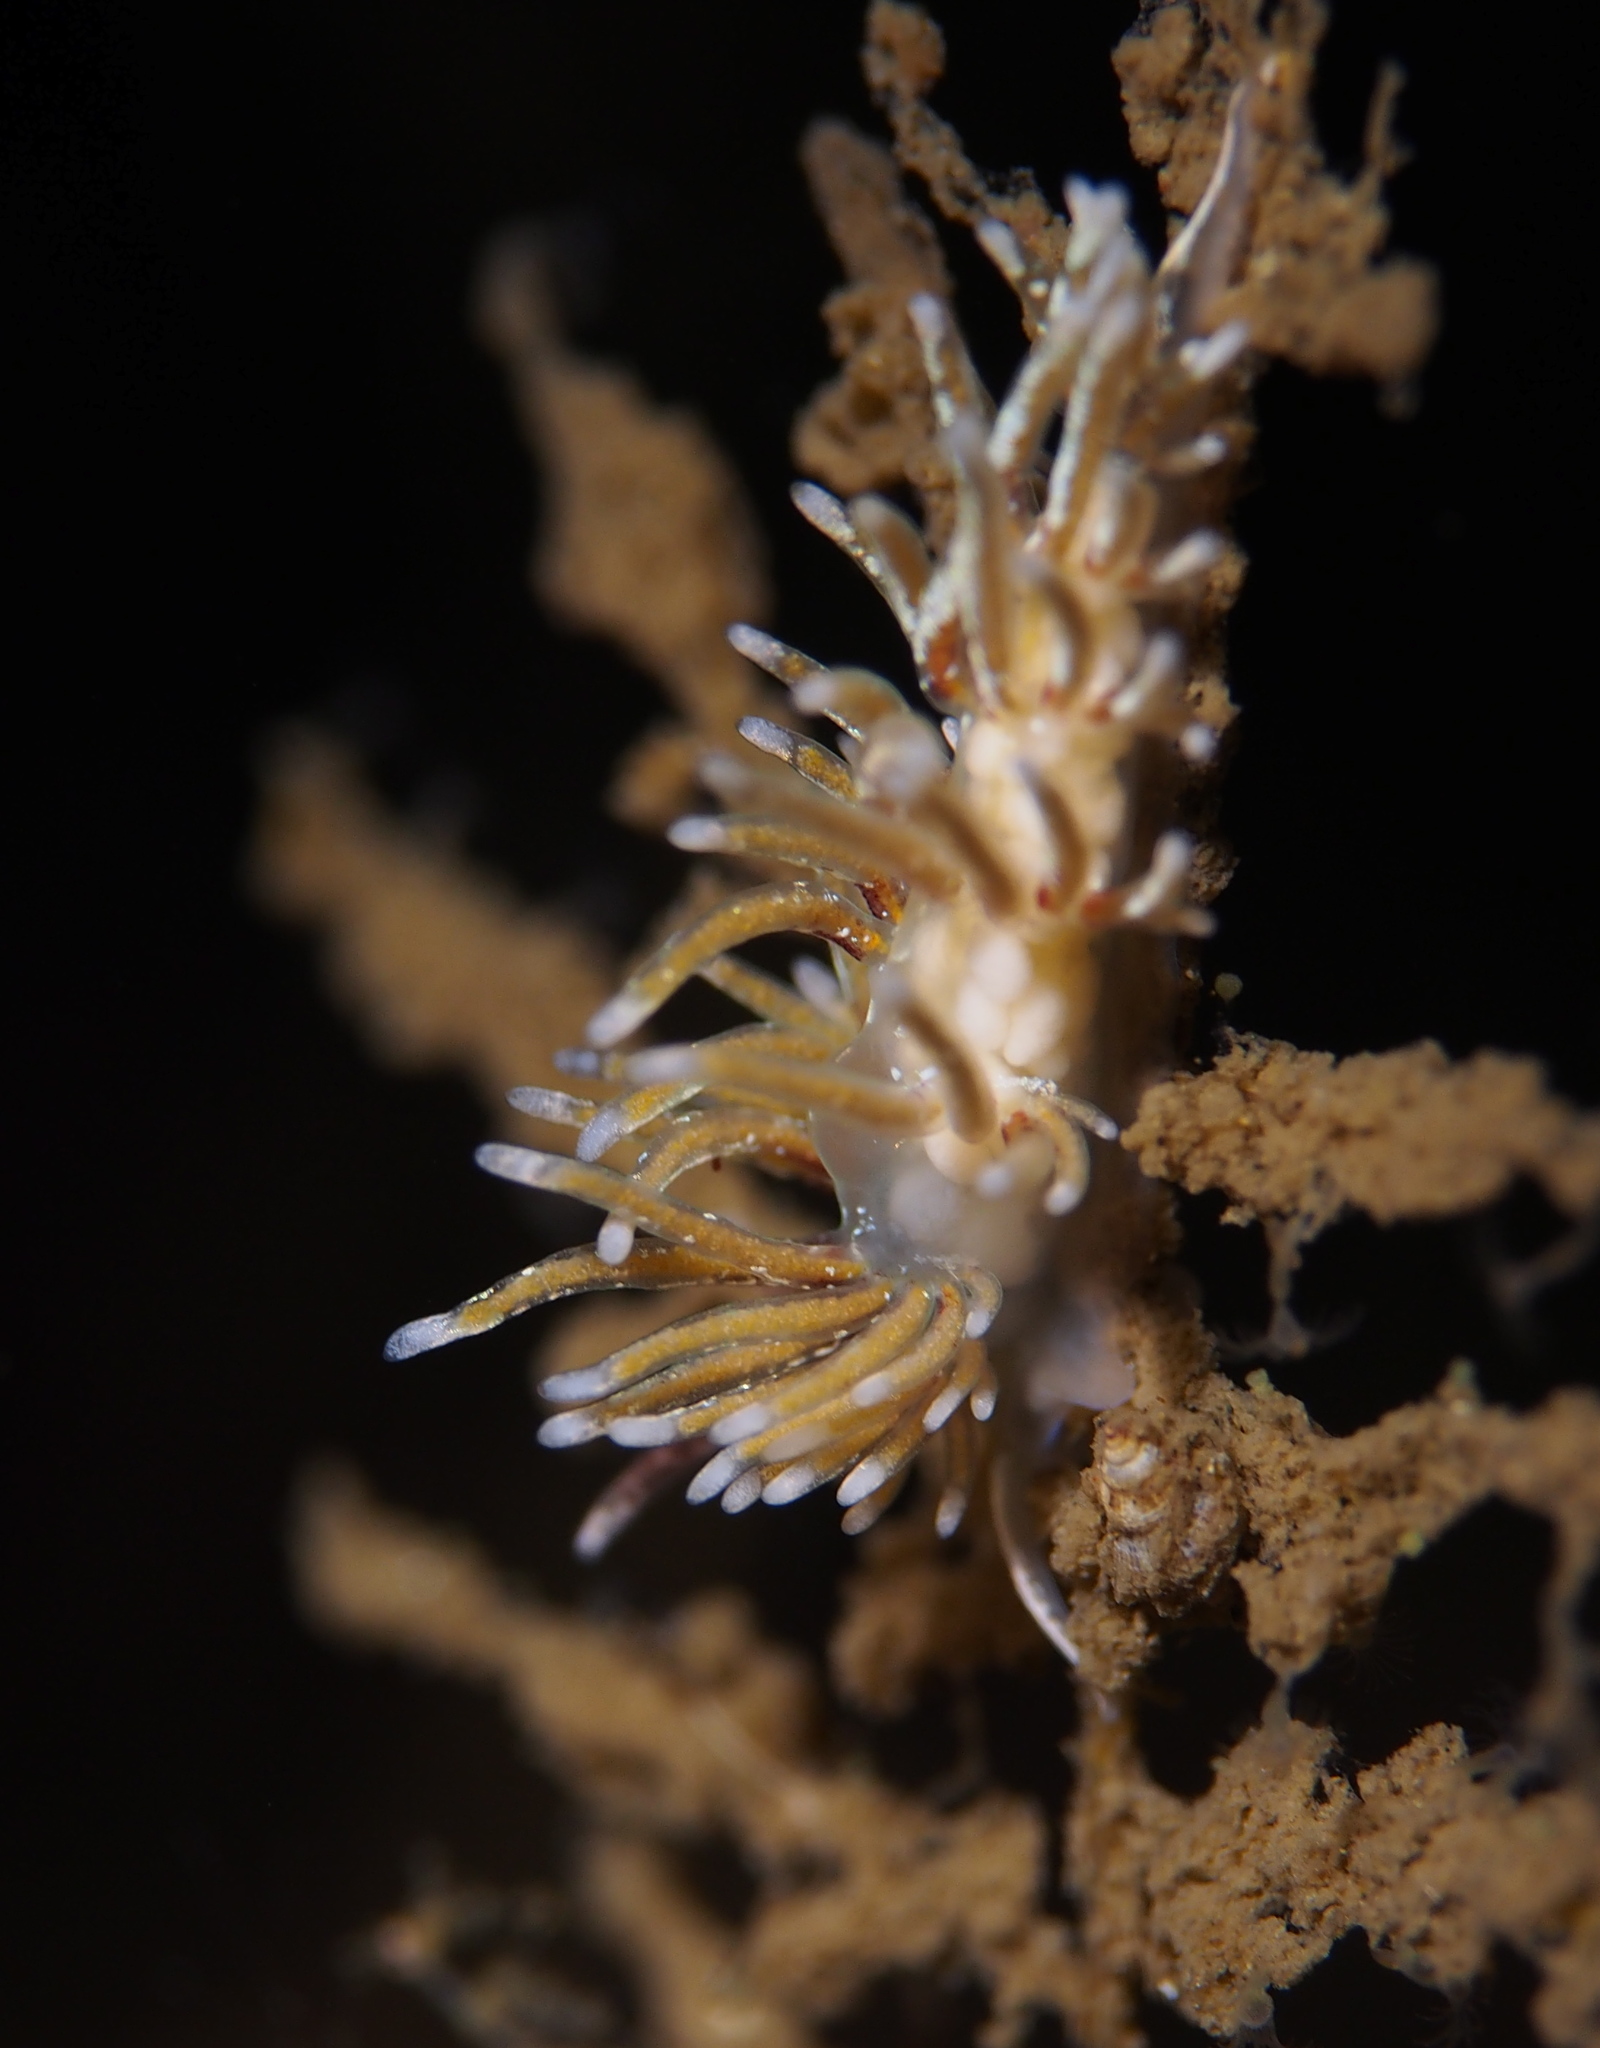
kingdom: Animalia
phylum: Mollusca
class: Gastropoda
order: Nudibranchia
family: Trinchesiidae
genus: Rubramoena
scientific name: Rubramoena rubescens
